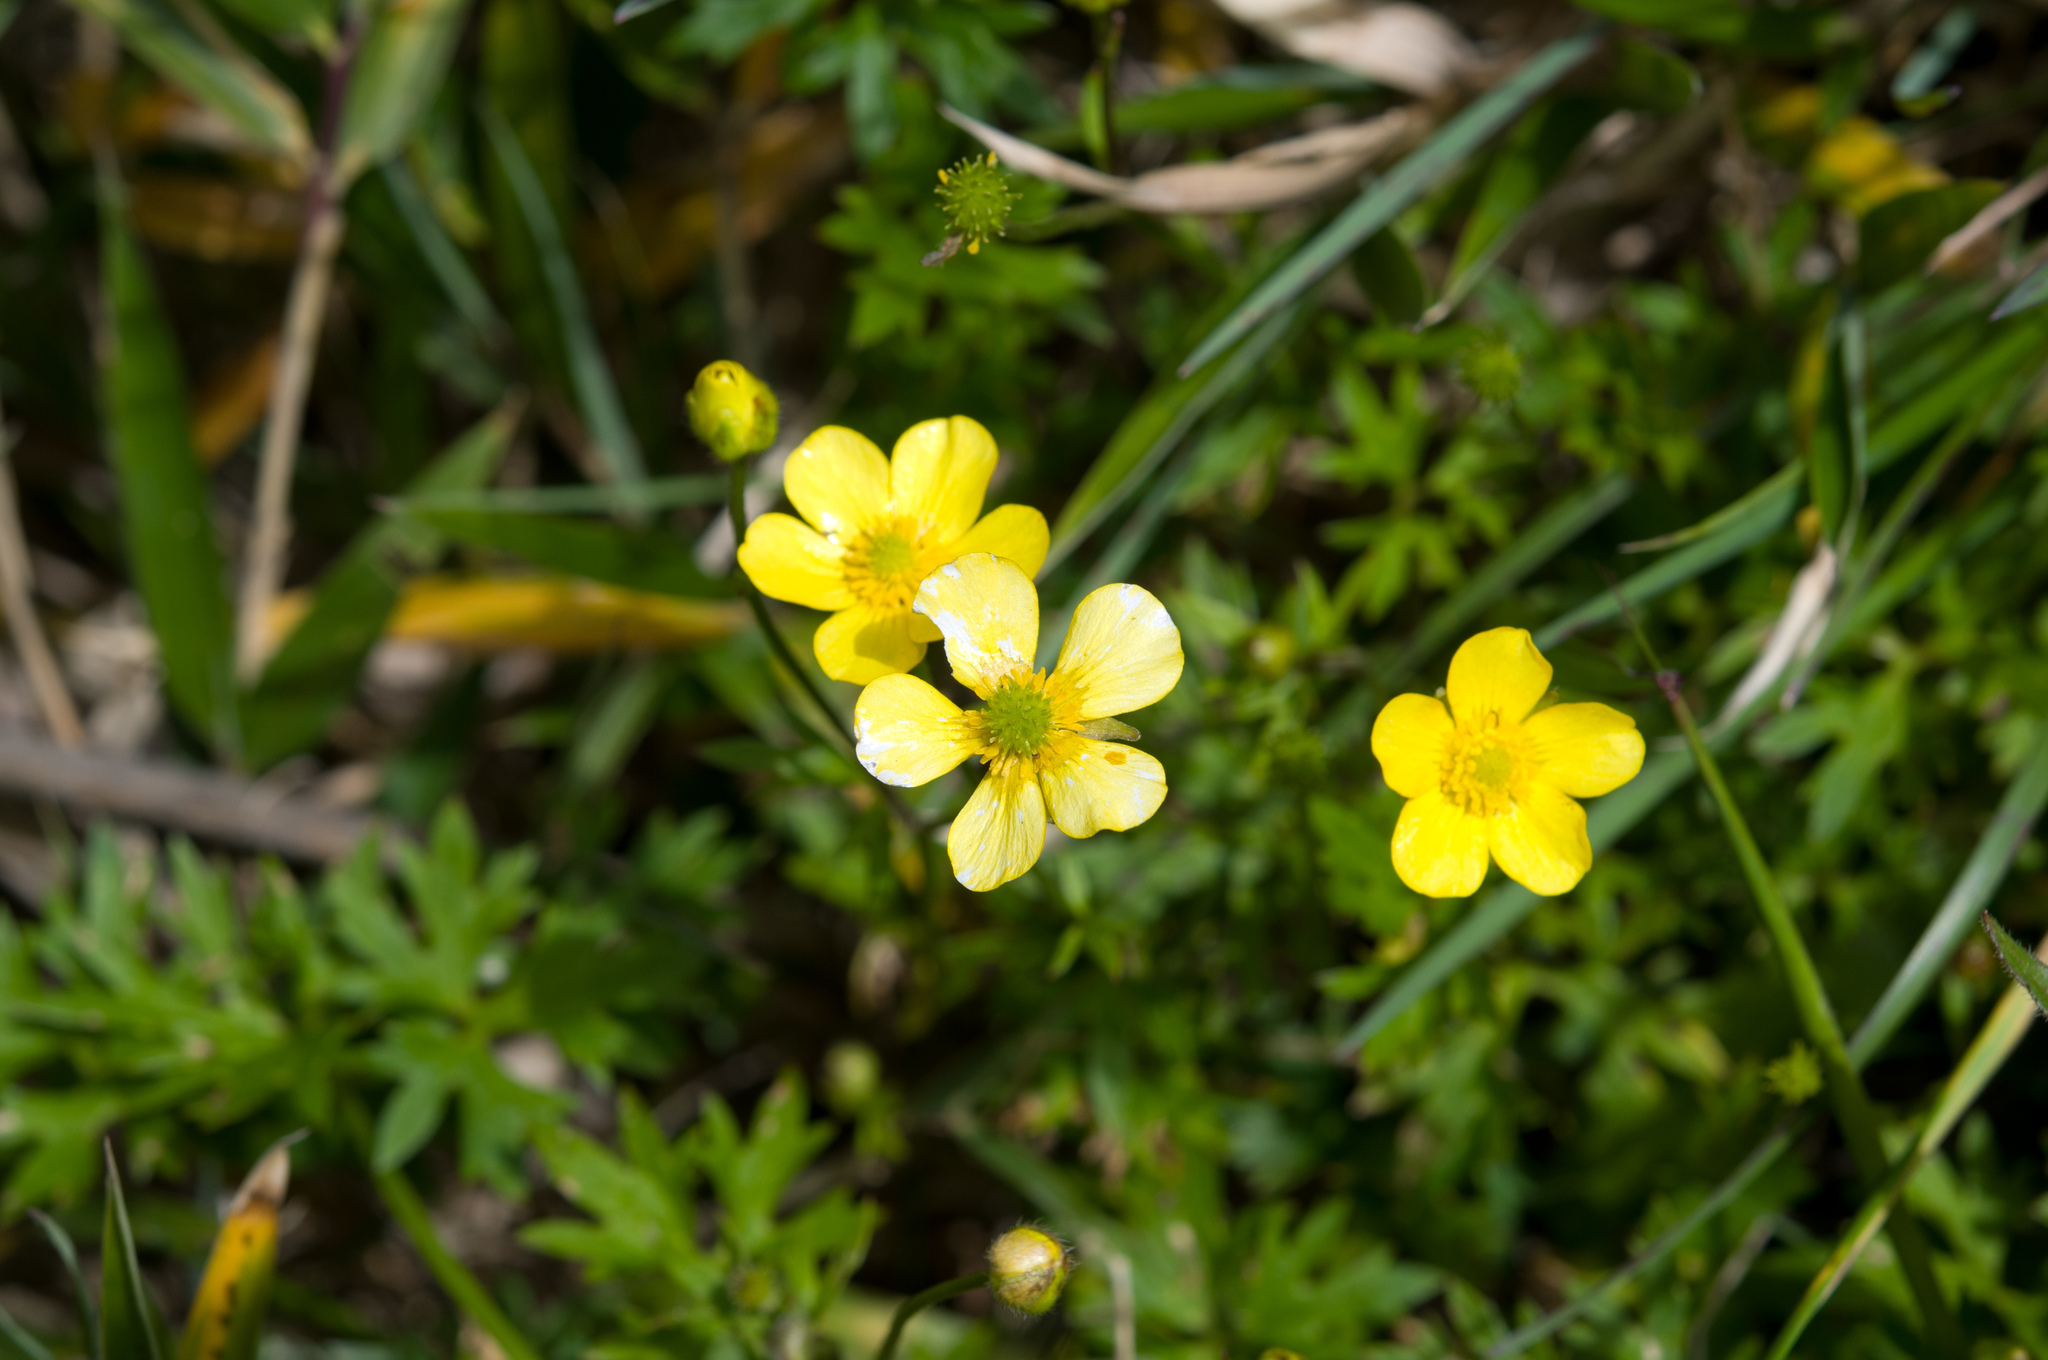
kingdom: Plantae
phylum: Tracheophyta
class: Magnoliopsida
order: Ranunculales
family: Ranunculaceae
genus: Ranunculus
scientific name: Ranunculus formosa-montanus
